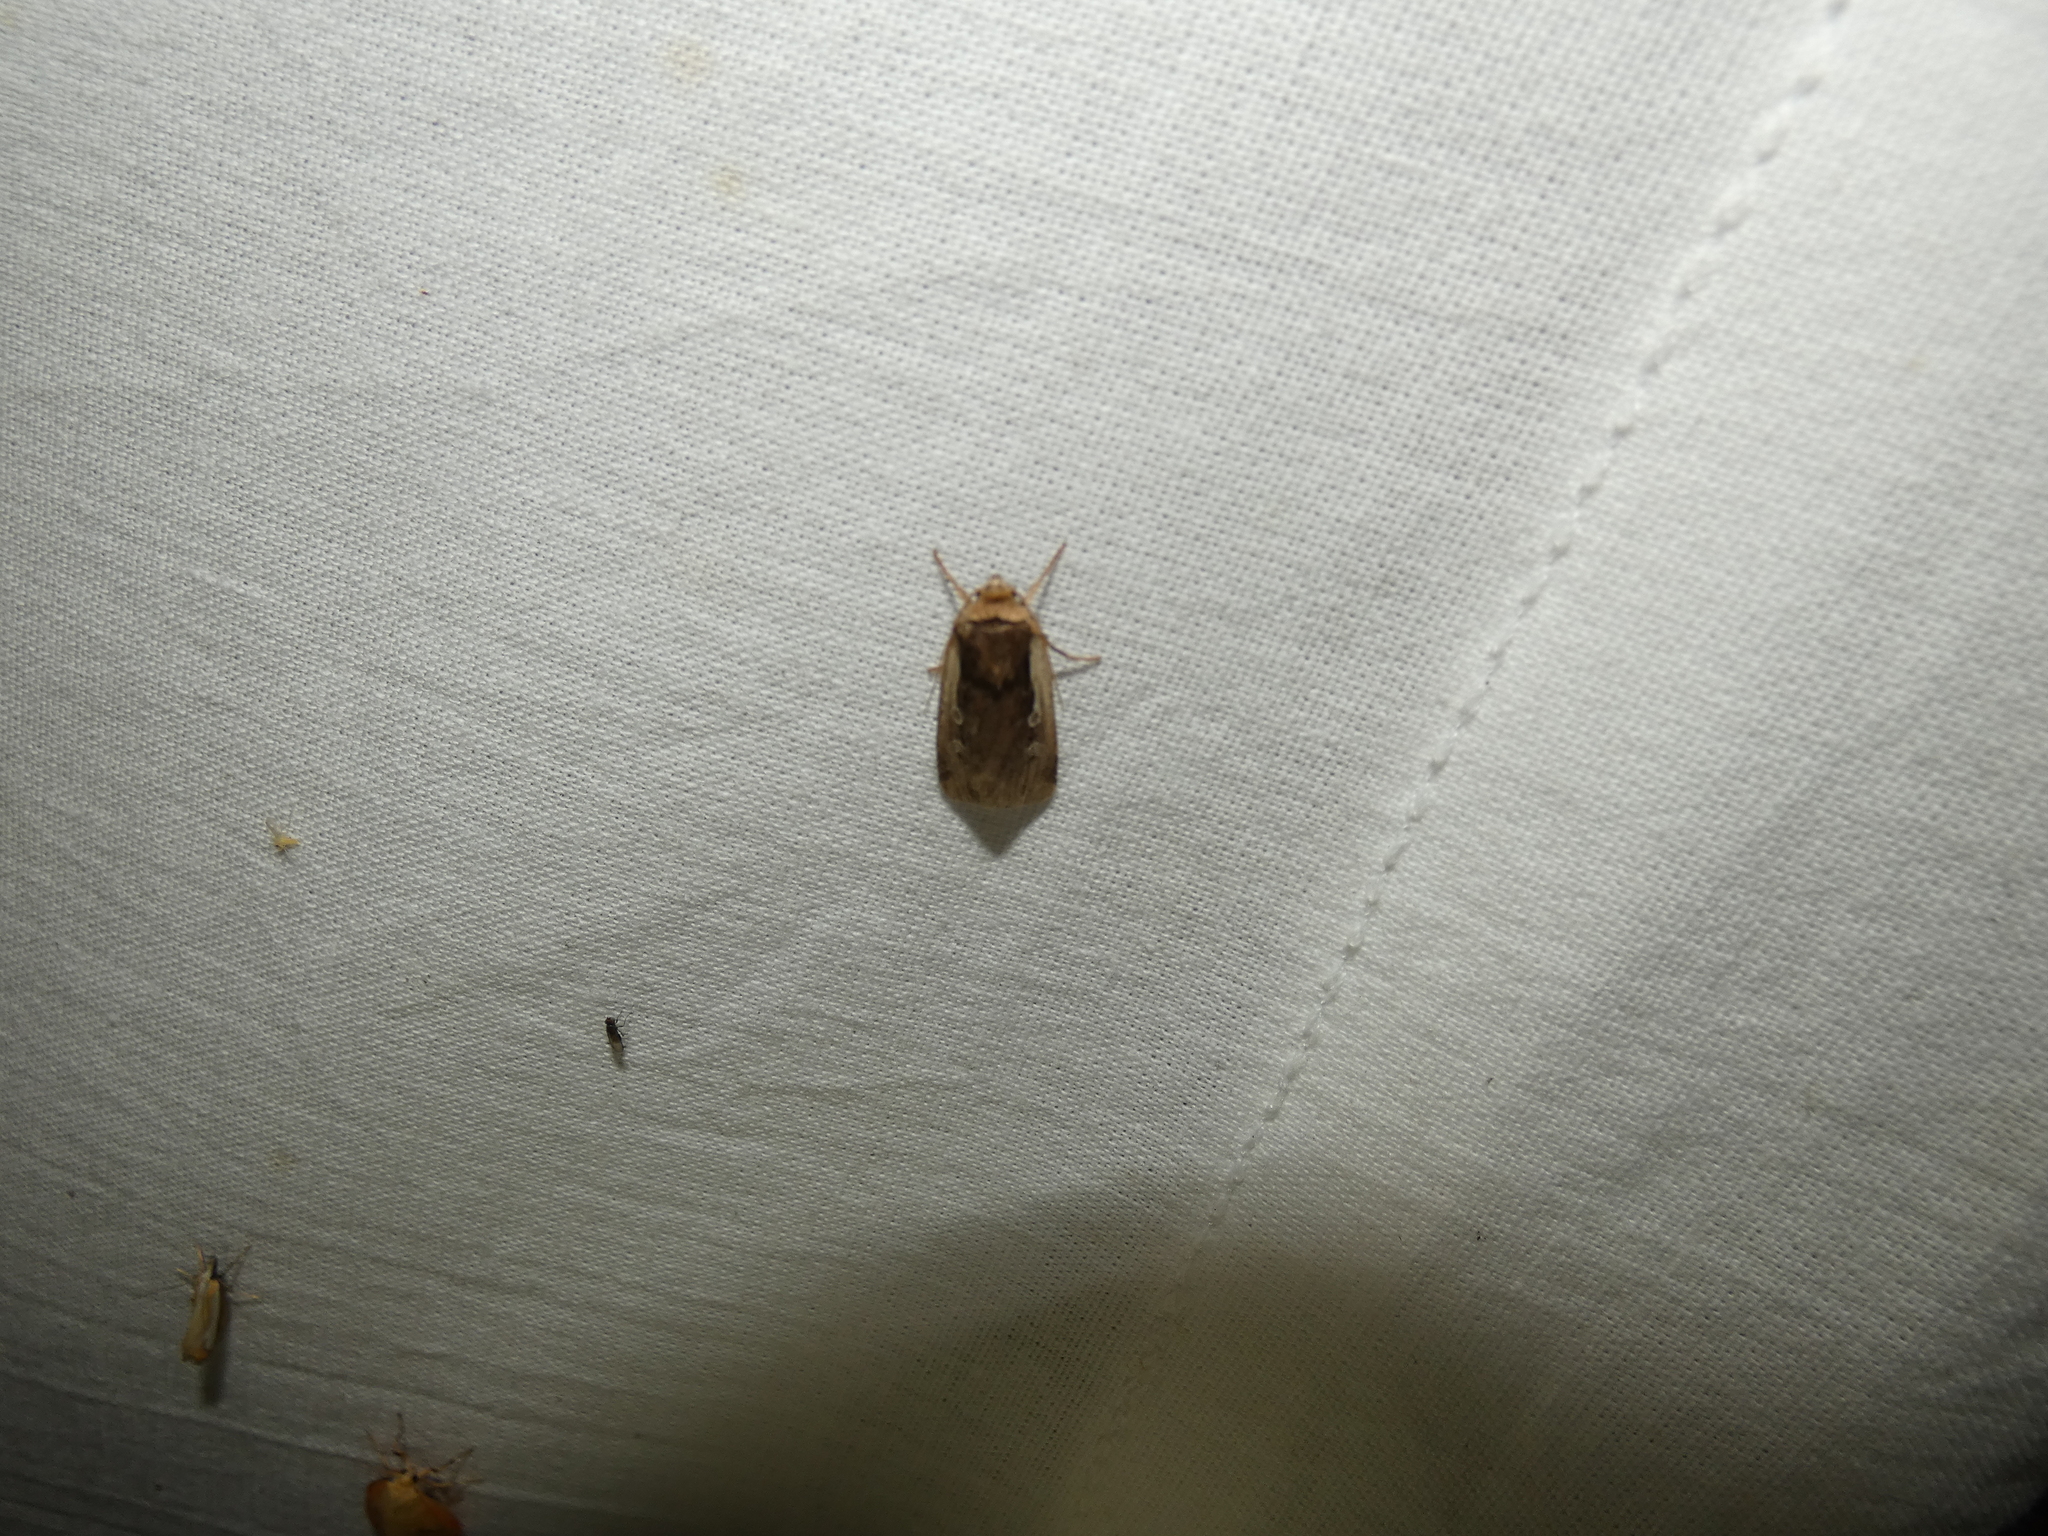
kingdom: Animalia
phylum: Arthropoda
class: Insecta
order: Lepidoptera
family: Noctuidae
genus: Ochropleura
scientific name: Ochropleura plecta
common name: Flame shoulder
